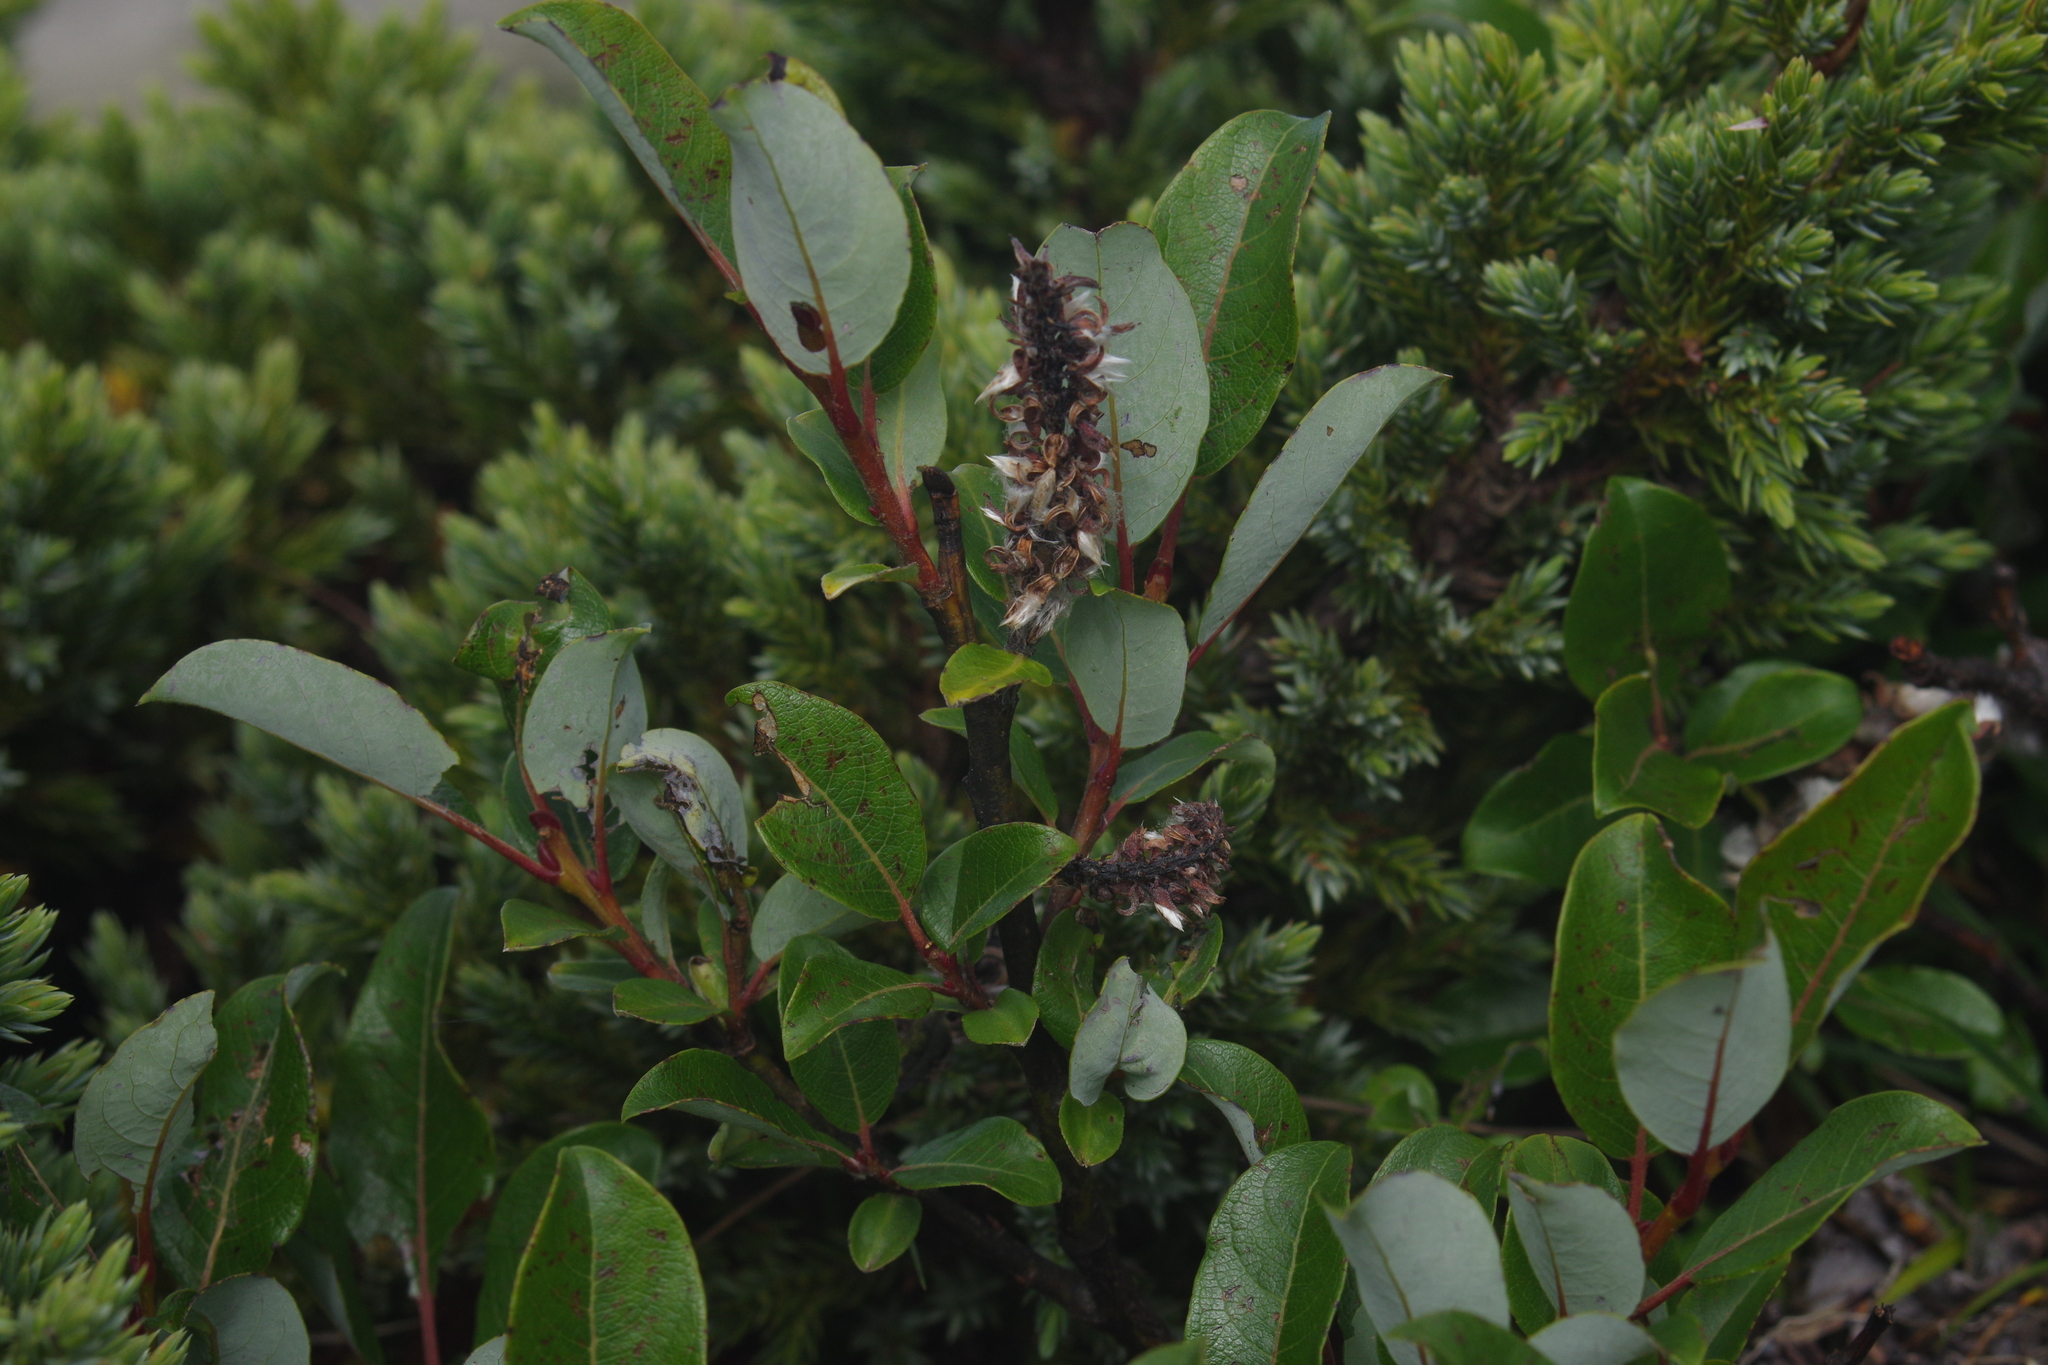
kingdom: Plantae
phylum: Tracheophyta
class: Magnoliopsida
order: Malpighiales
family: Salicaceae
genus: Salix
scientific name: Salix taiwanalpina
